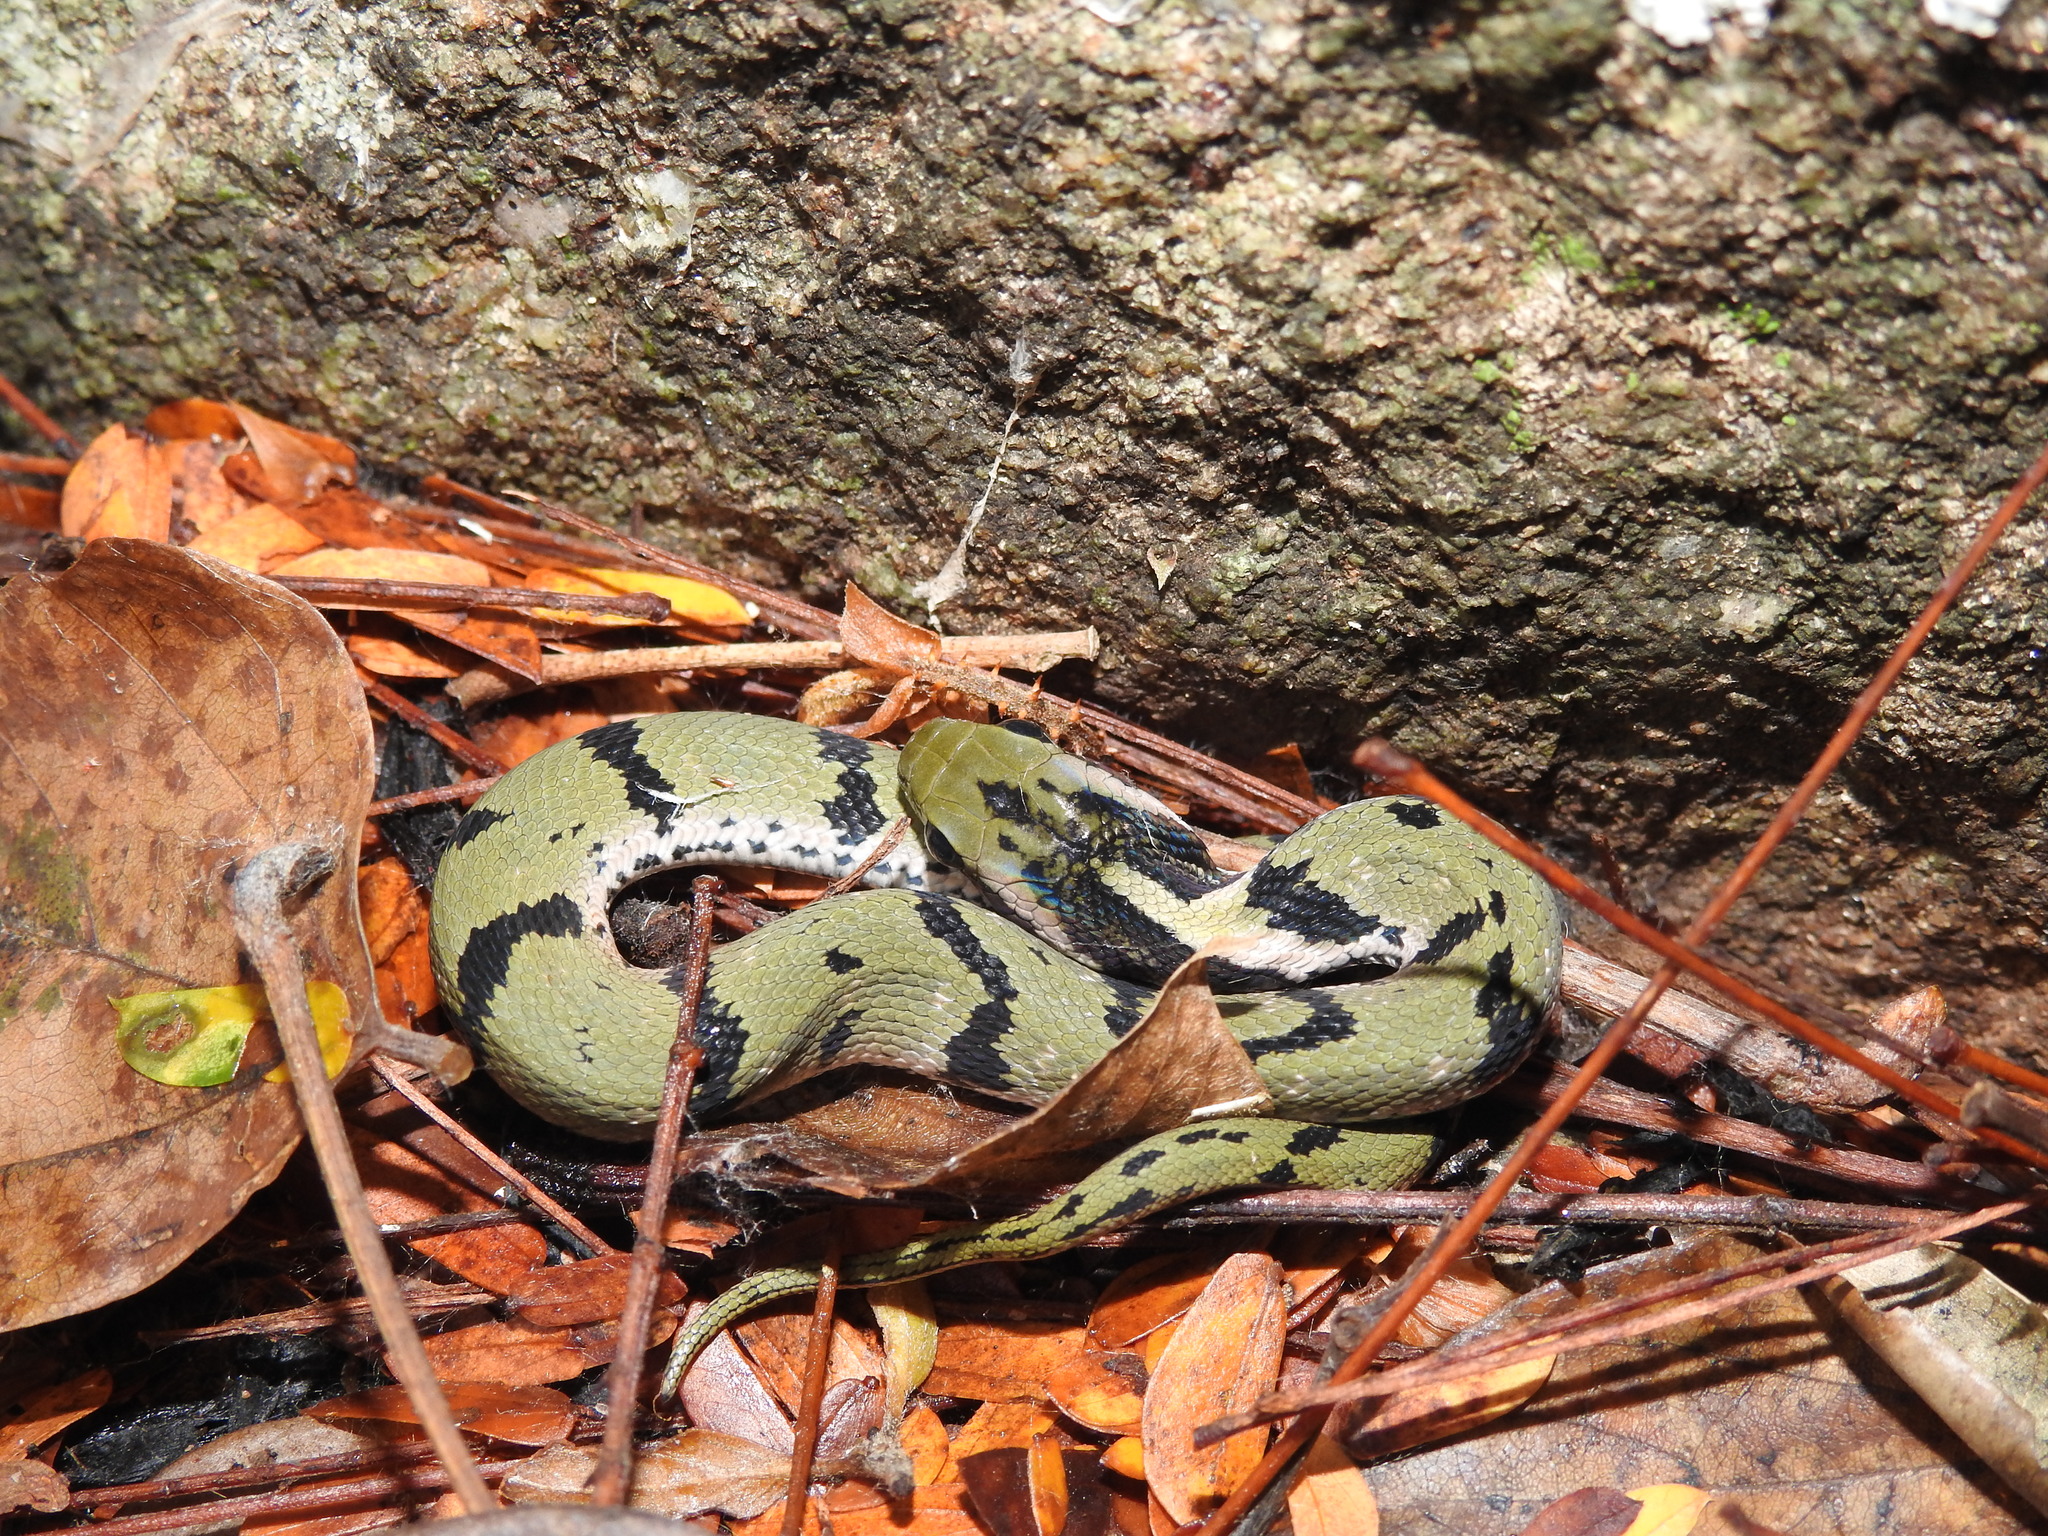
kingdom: Animalia
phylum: Chordata
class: Squamata
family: Colubridae
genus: Rhabdophis
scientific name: Rhabdophis plumbicolor
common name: Green keelback
